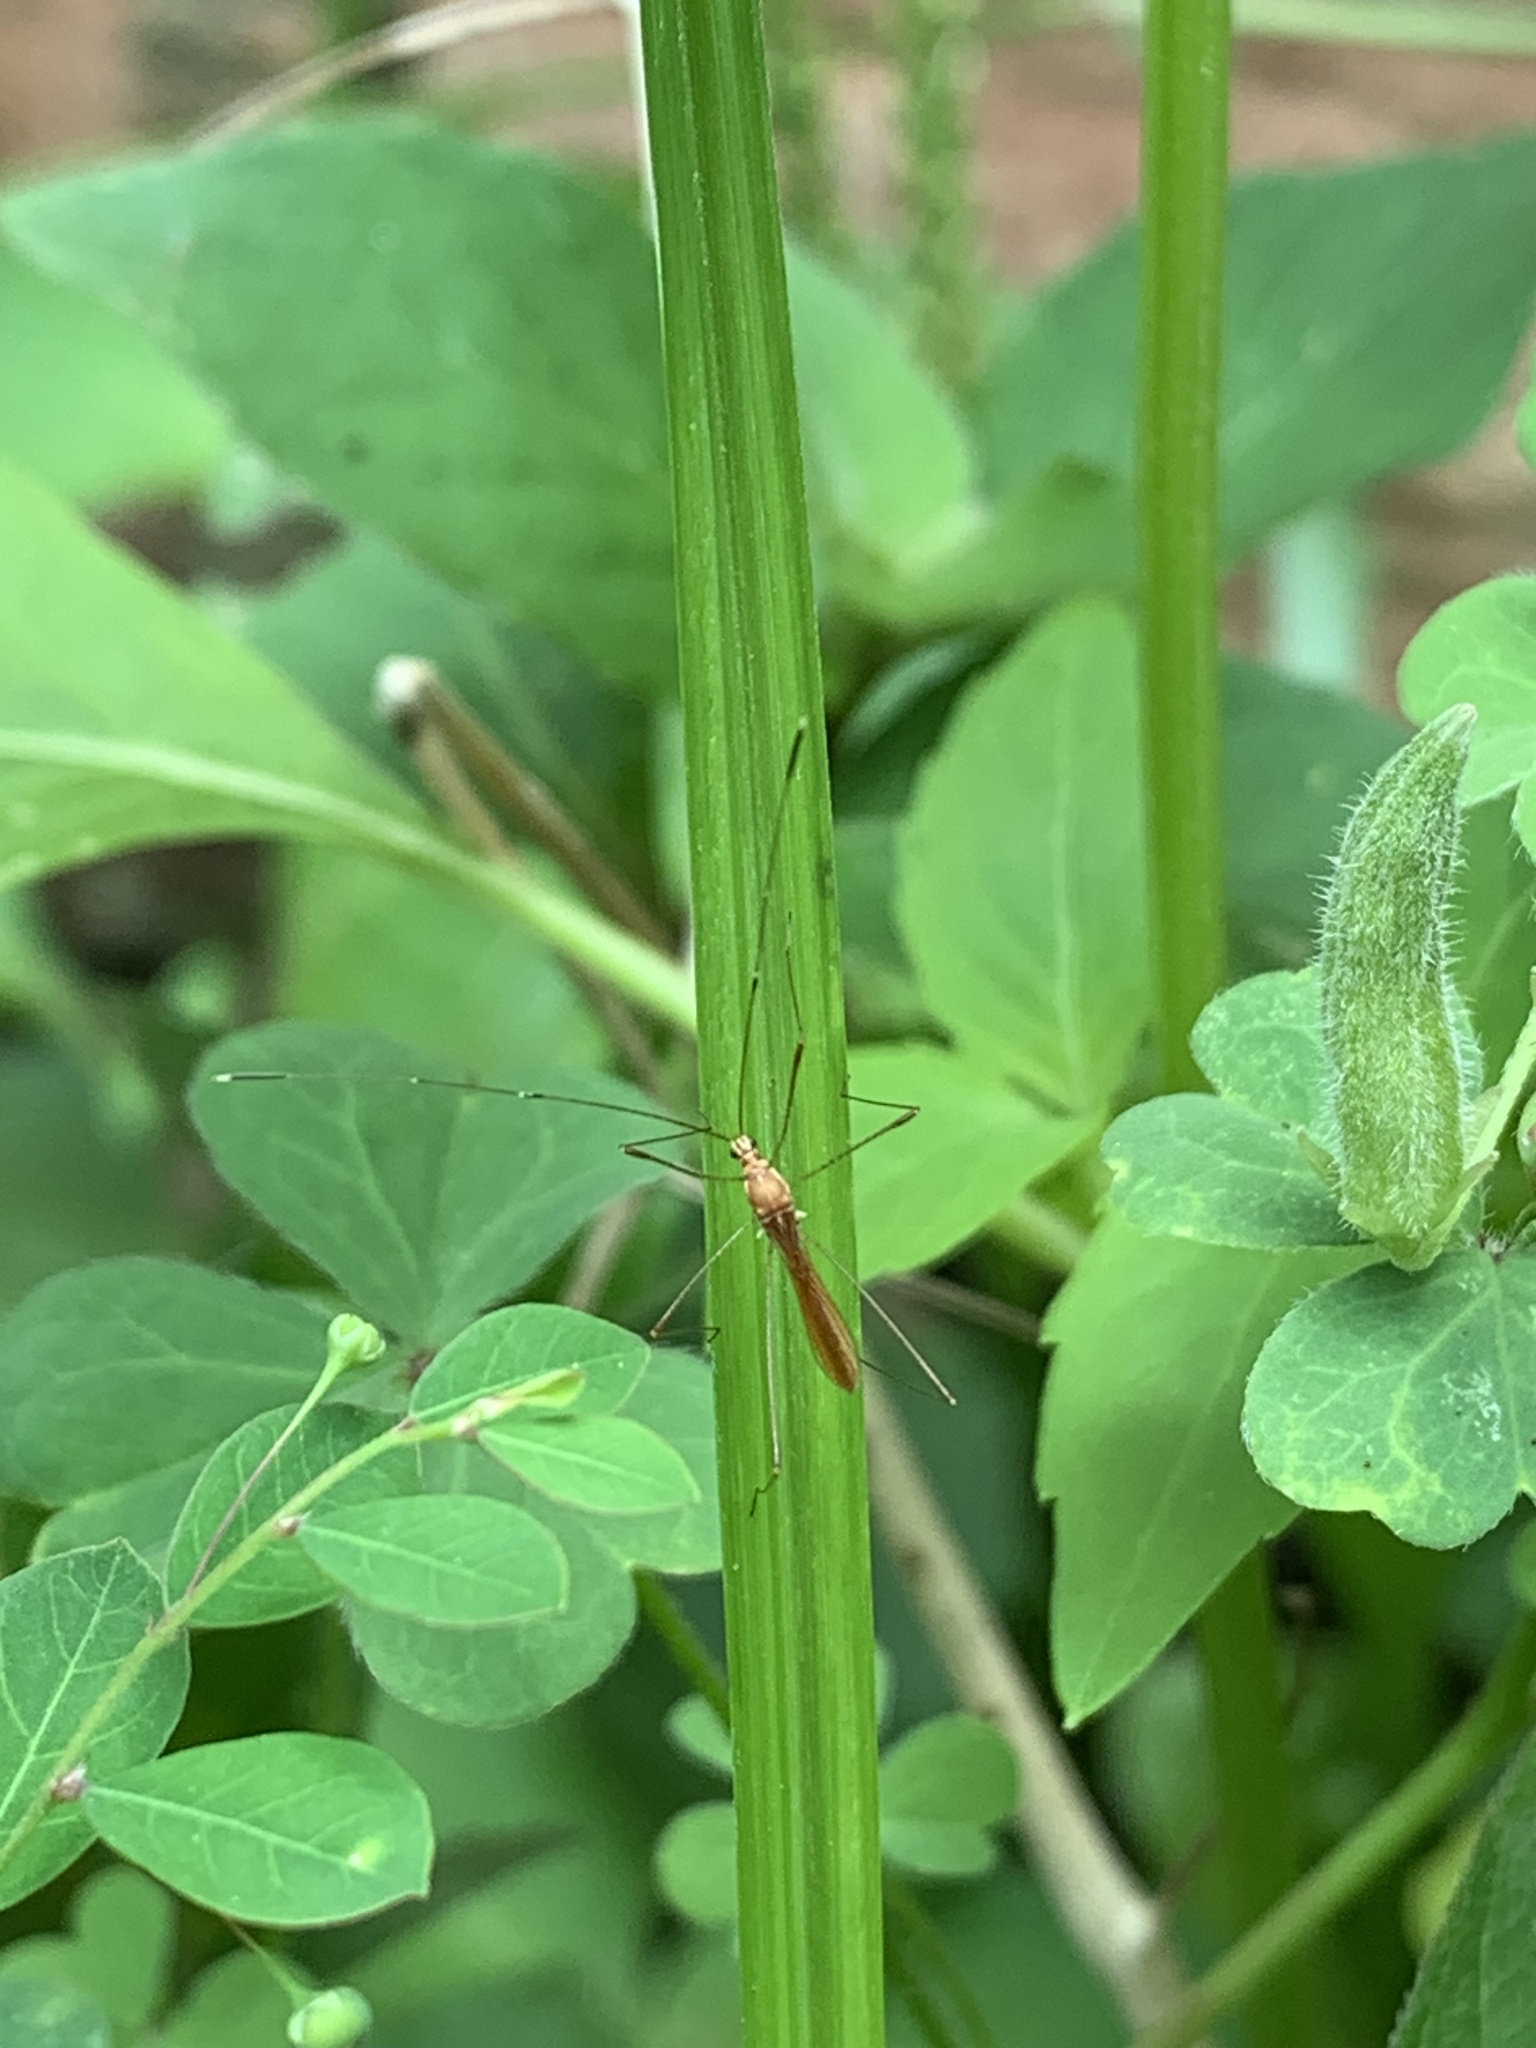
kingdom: Animalia
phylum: Arthropoda
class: Insecta
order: Hemiptera
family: Berytidae
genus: Jalysus
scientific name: Jalysus reductus
